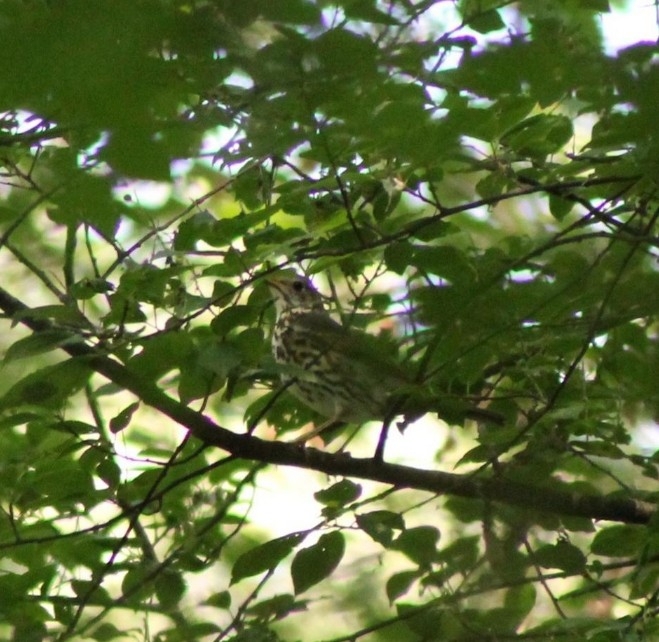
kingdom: Animalia
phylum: Chordata
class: Aves
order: Passeriformes
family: Turdidae
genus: Turdus
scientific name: Turdus philomelos
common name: Song thrush
